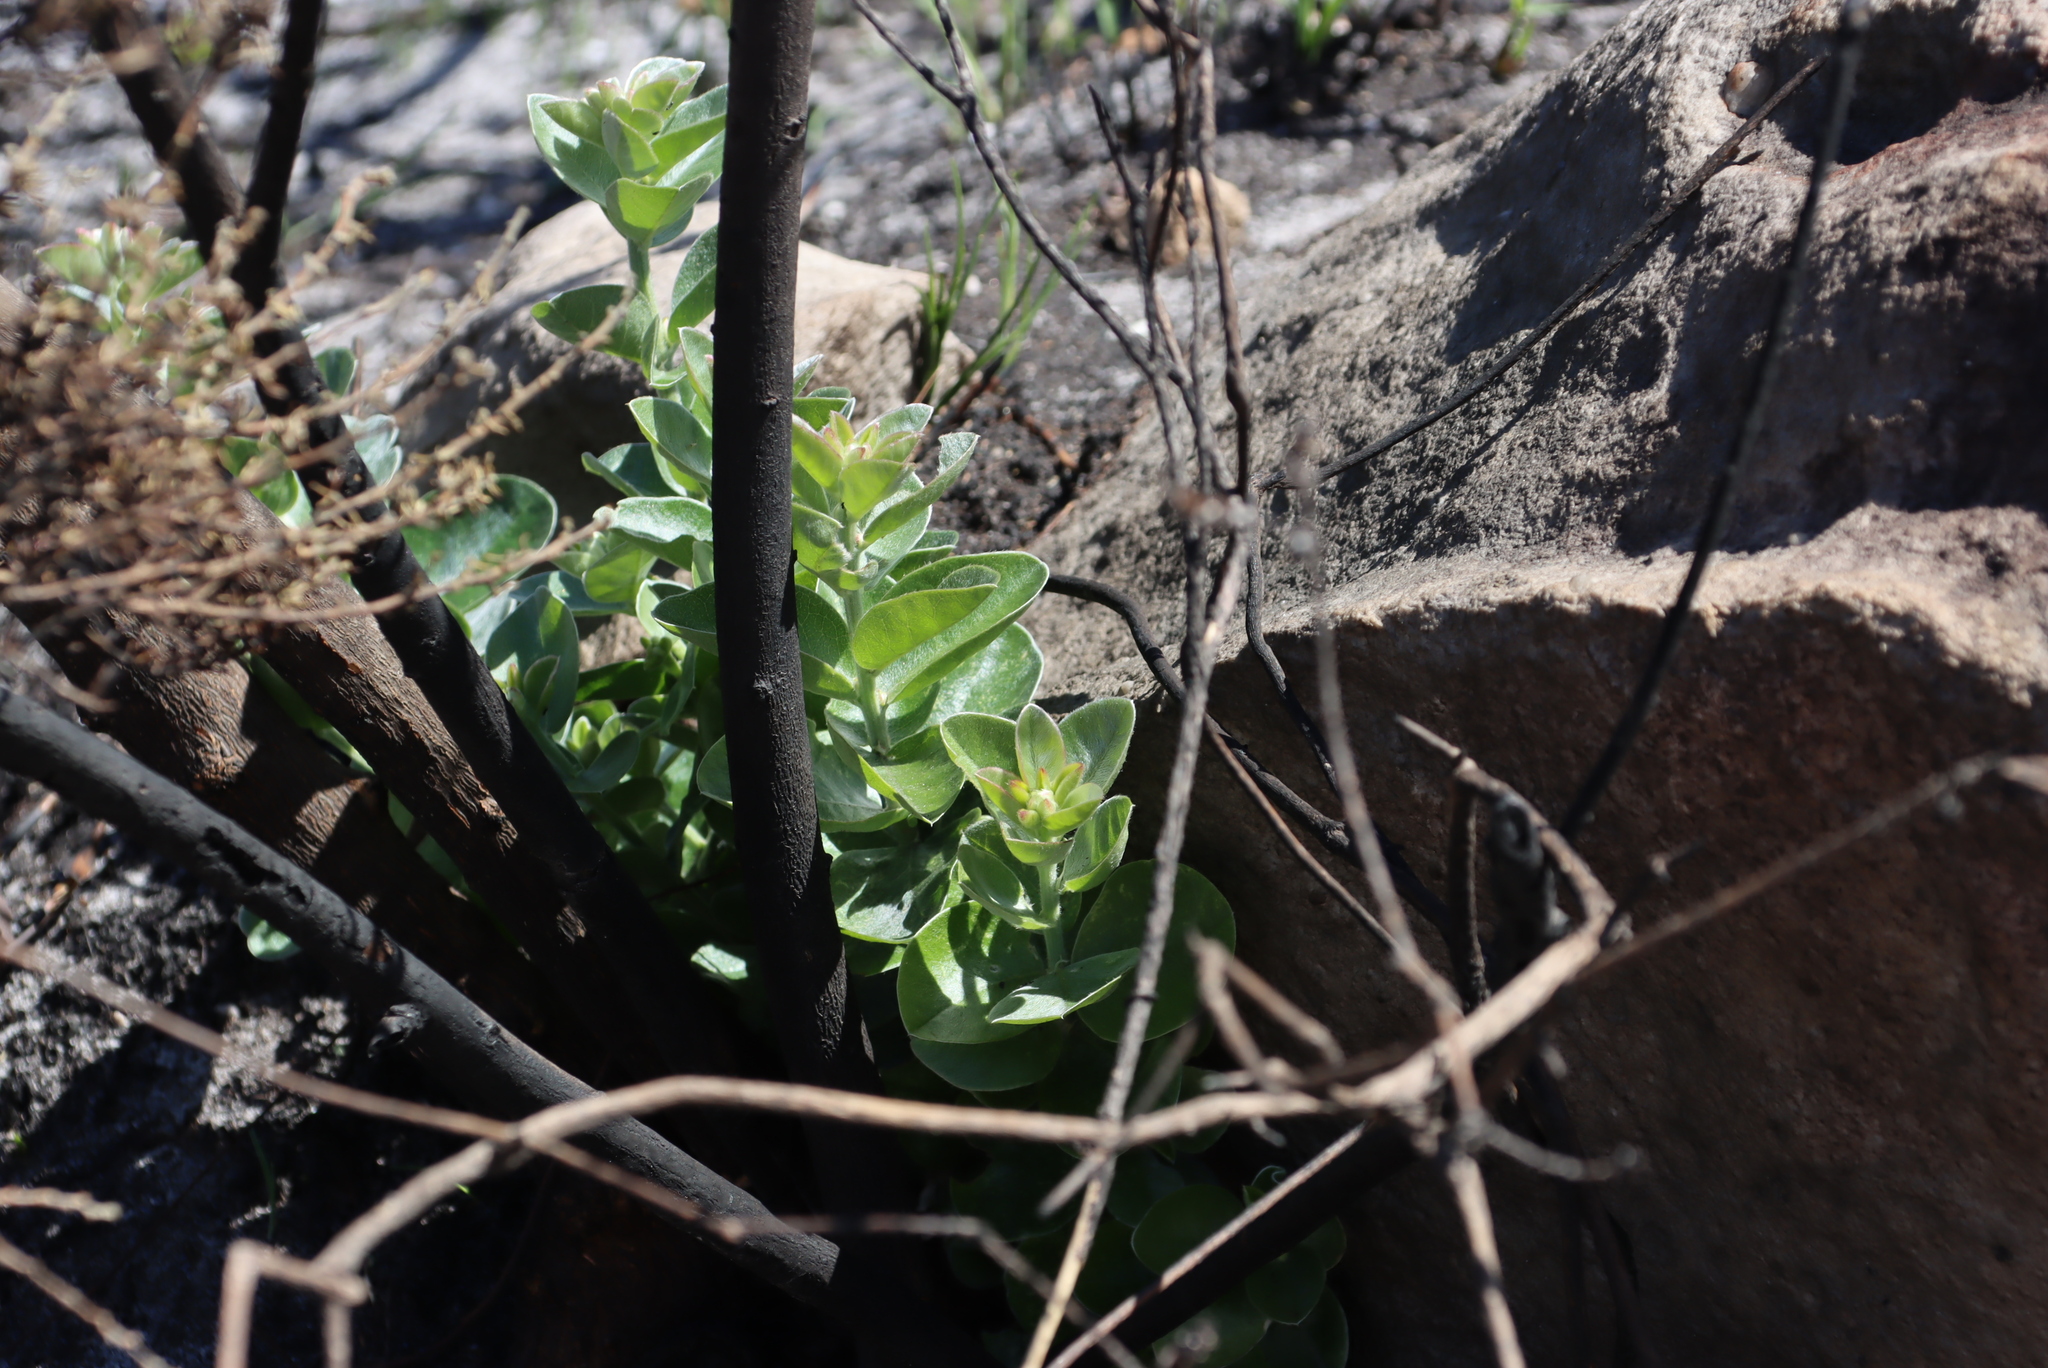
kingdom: Plantae
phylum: Tracheophyta
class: Magnoliopsida
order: Fabales
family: Fabaceae
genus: Podalyria
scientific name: Podalyria calyptrata
